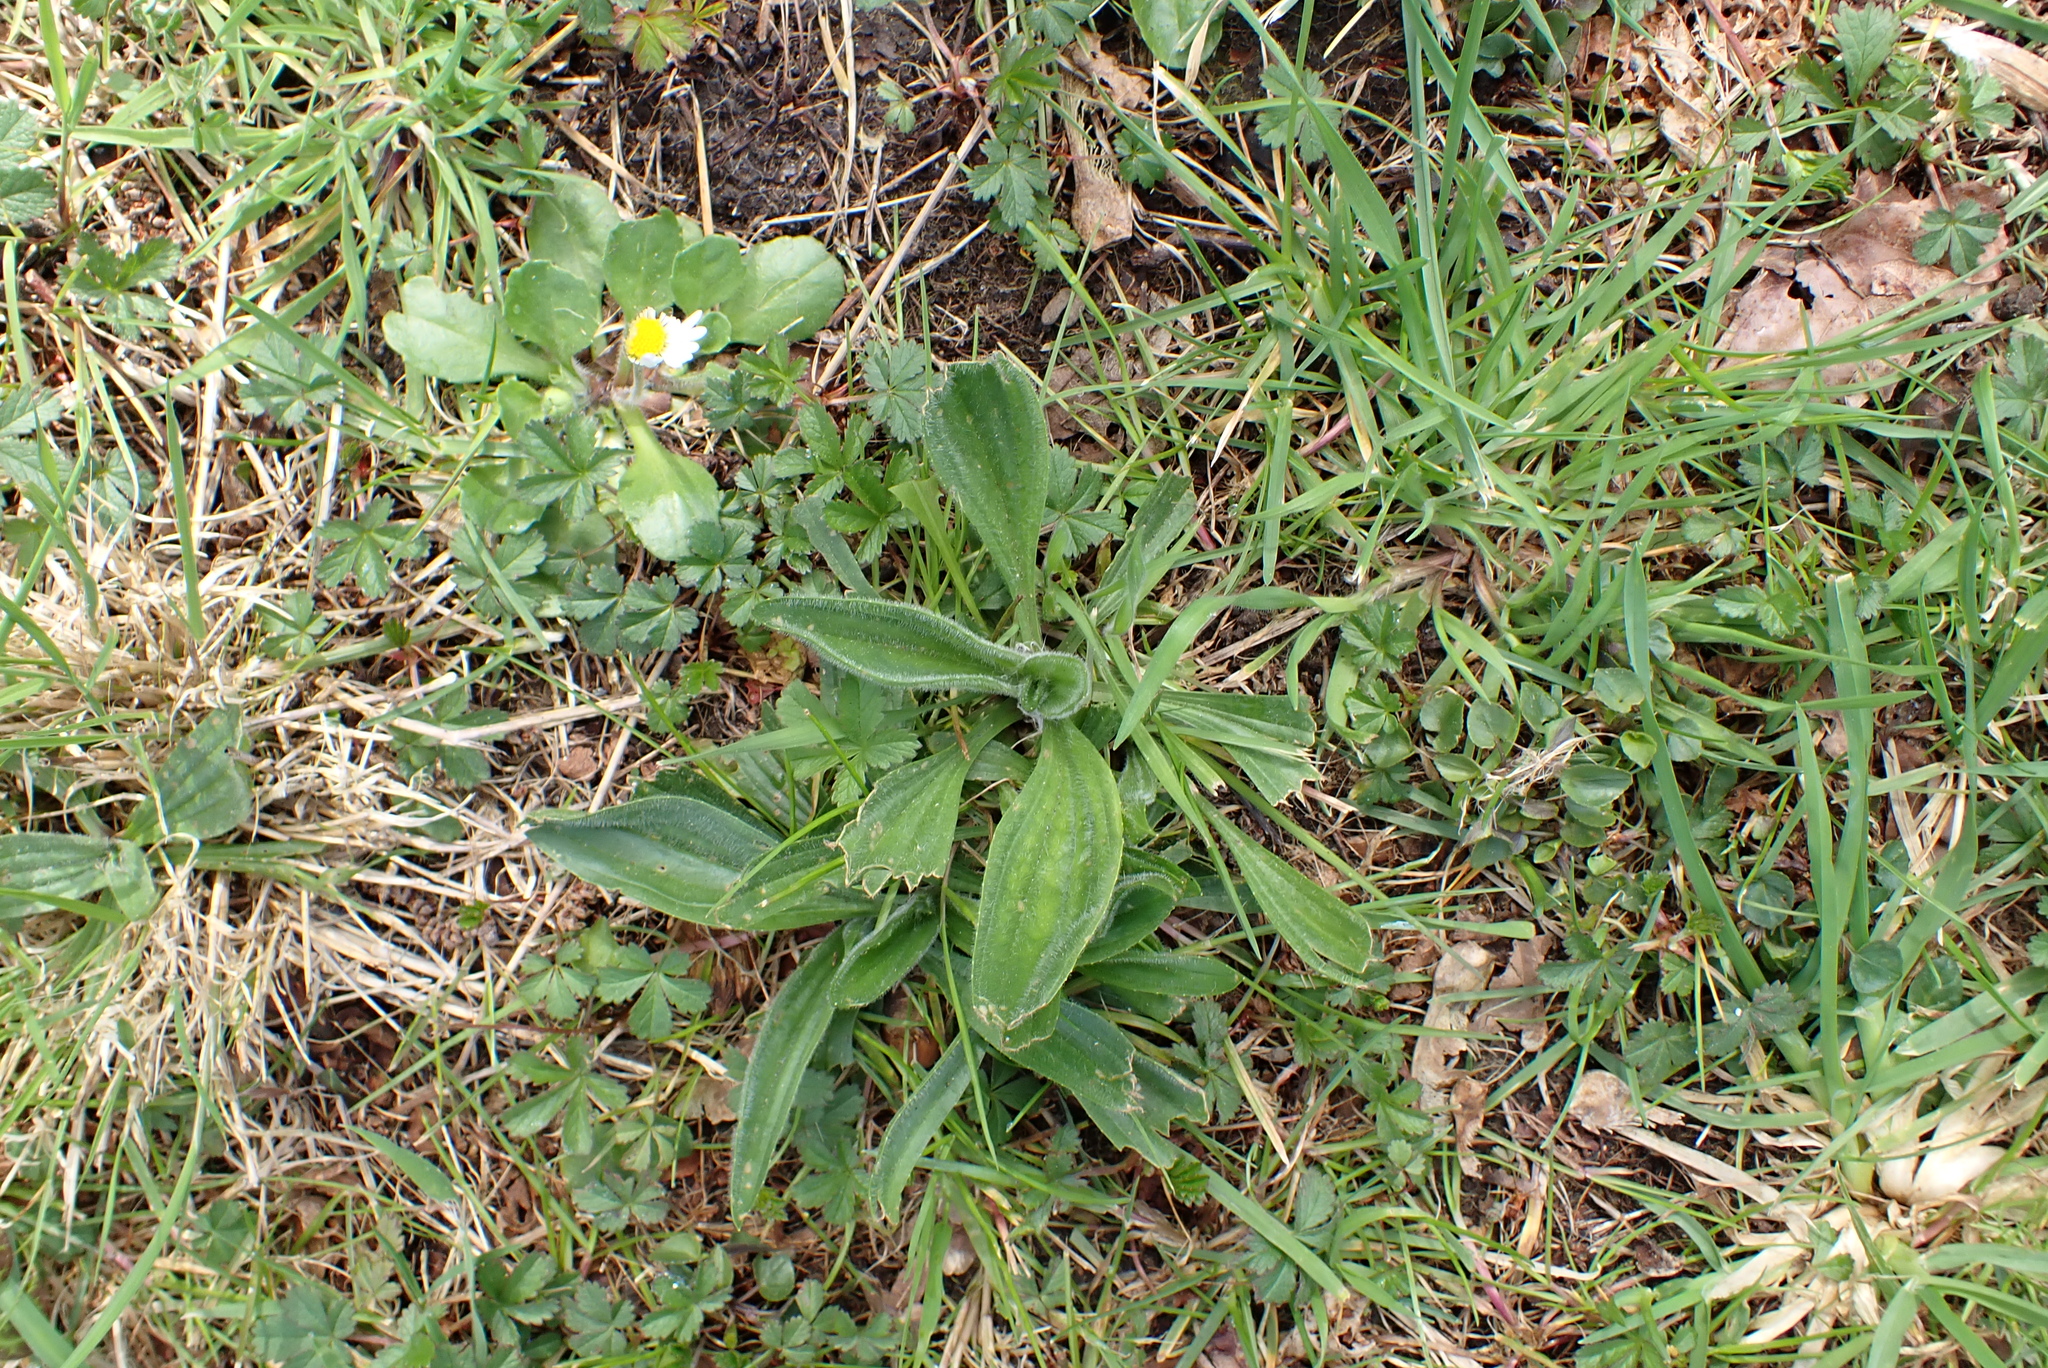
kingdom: Plantae
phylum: Tracheophyta
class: Magnoliopsida
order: Lamiales
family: Plantaginaceae
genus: Plantago
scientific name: Plantago lanceolata
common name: Ribwort plantain
